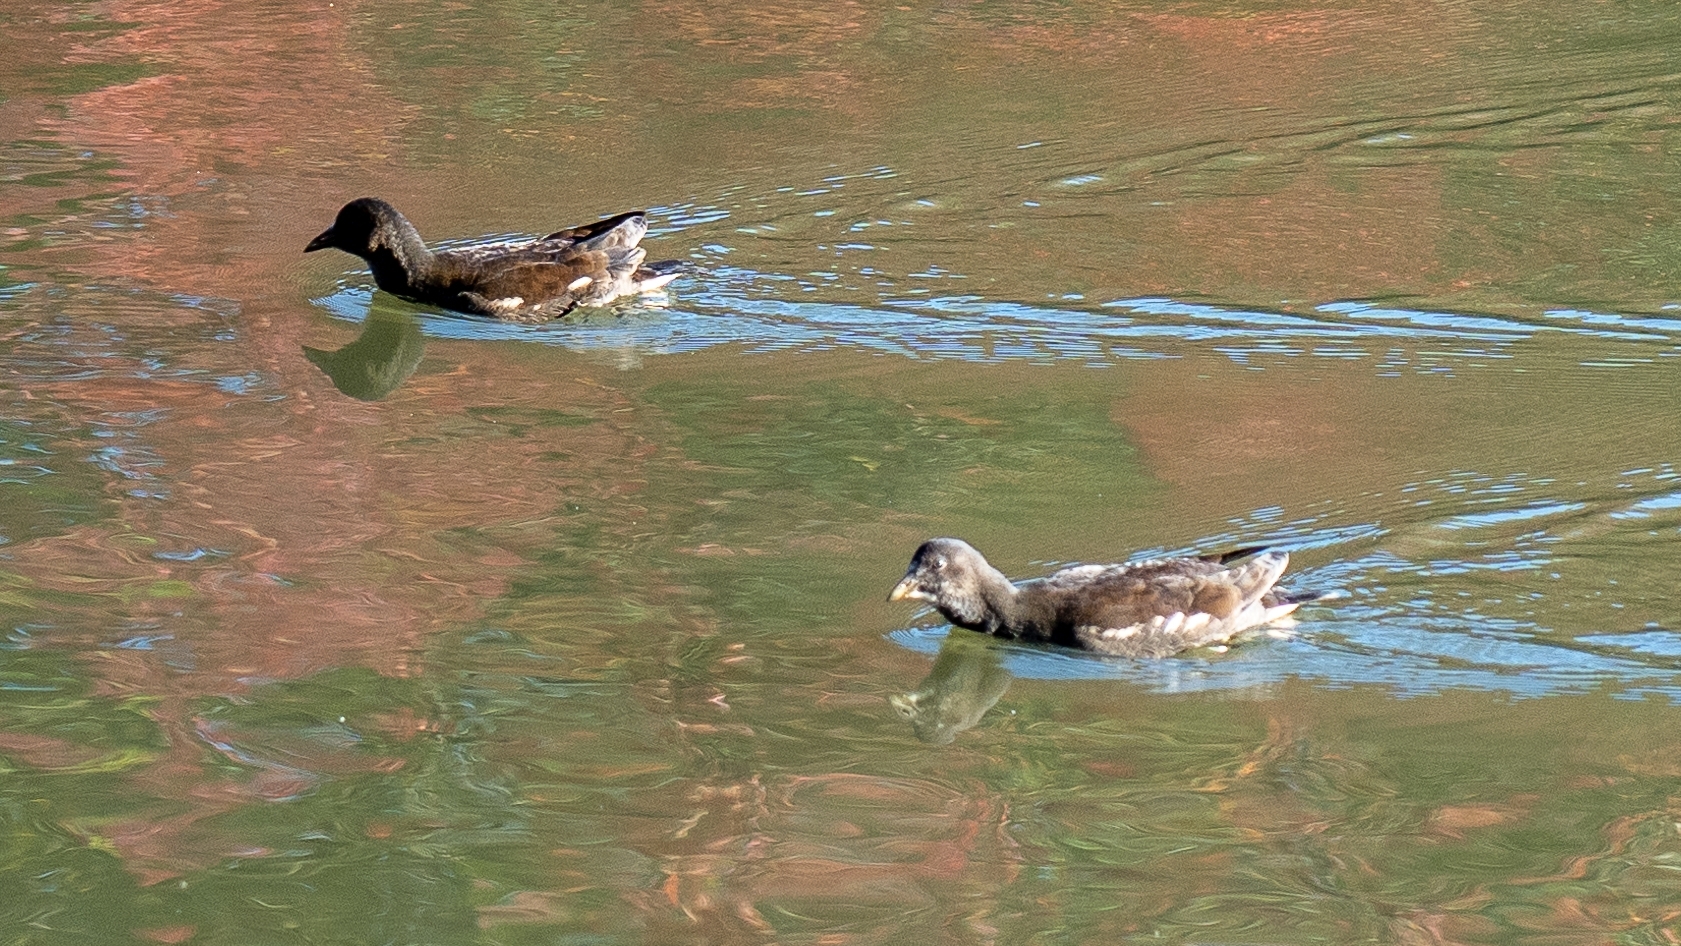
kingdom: Animalia
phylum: Chordata
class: Aves
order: Gruiformes
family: Rallidae
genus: Gallinula
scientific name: Gallinula chloropus
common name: Common moorhen
